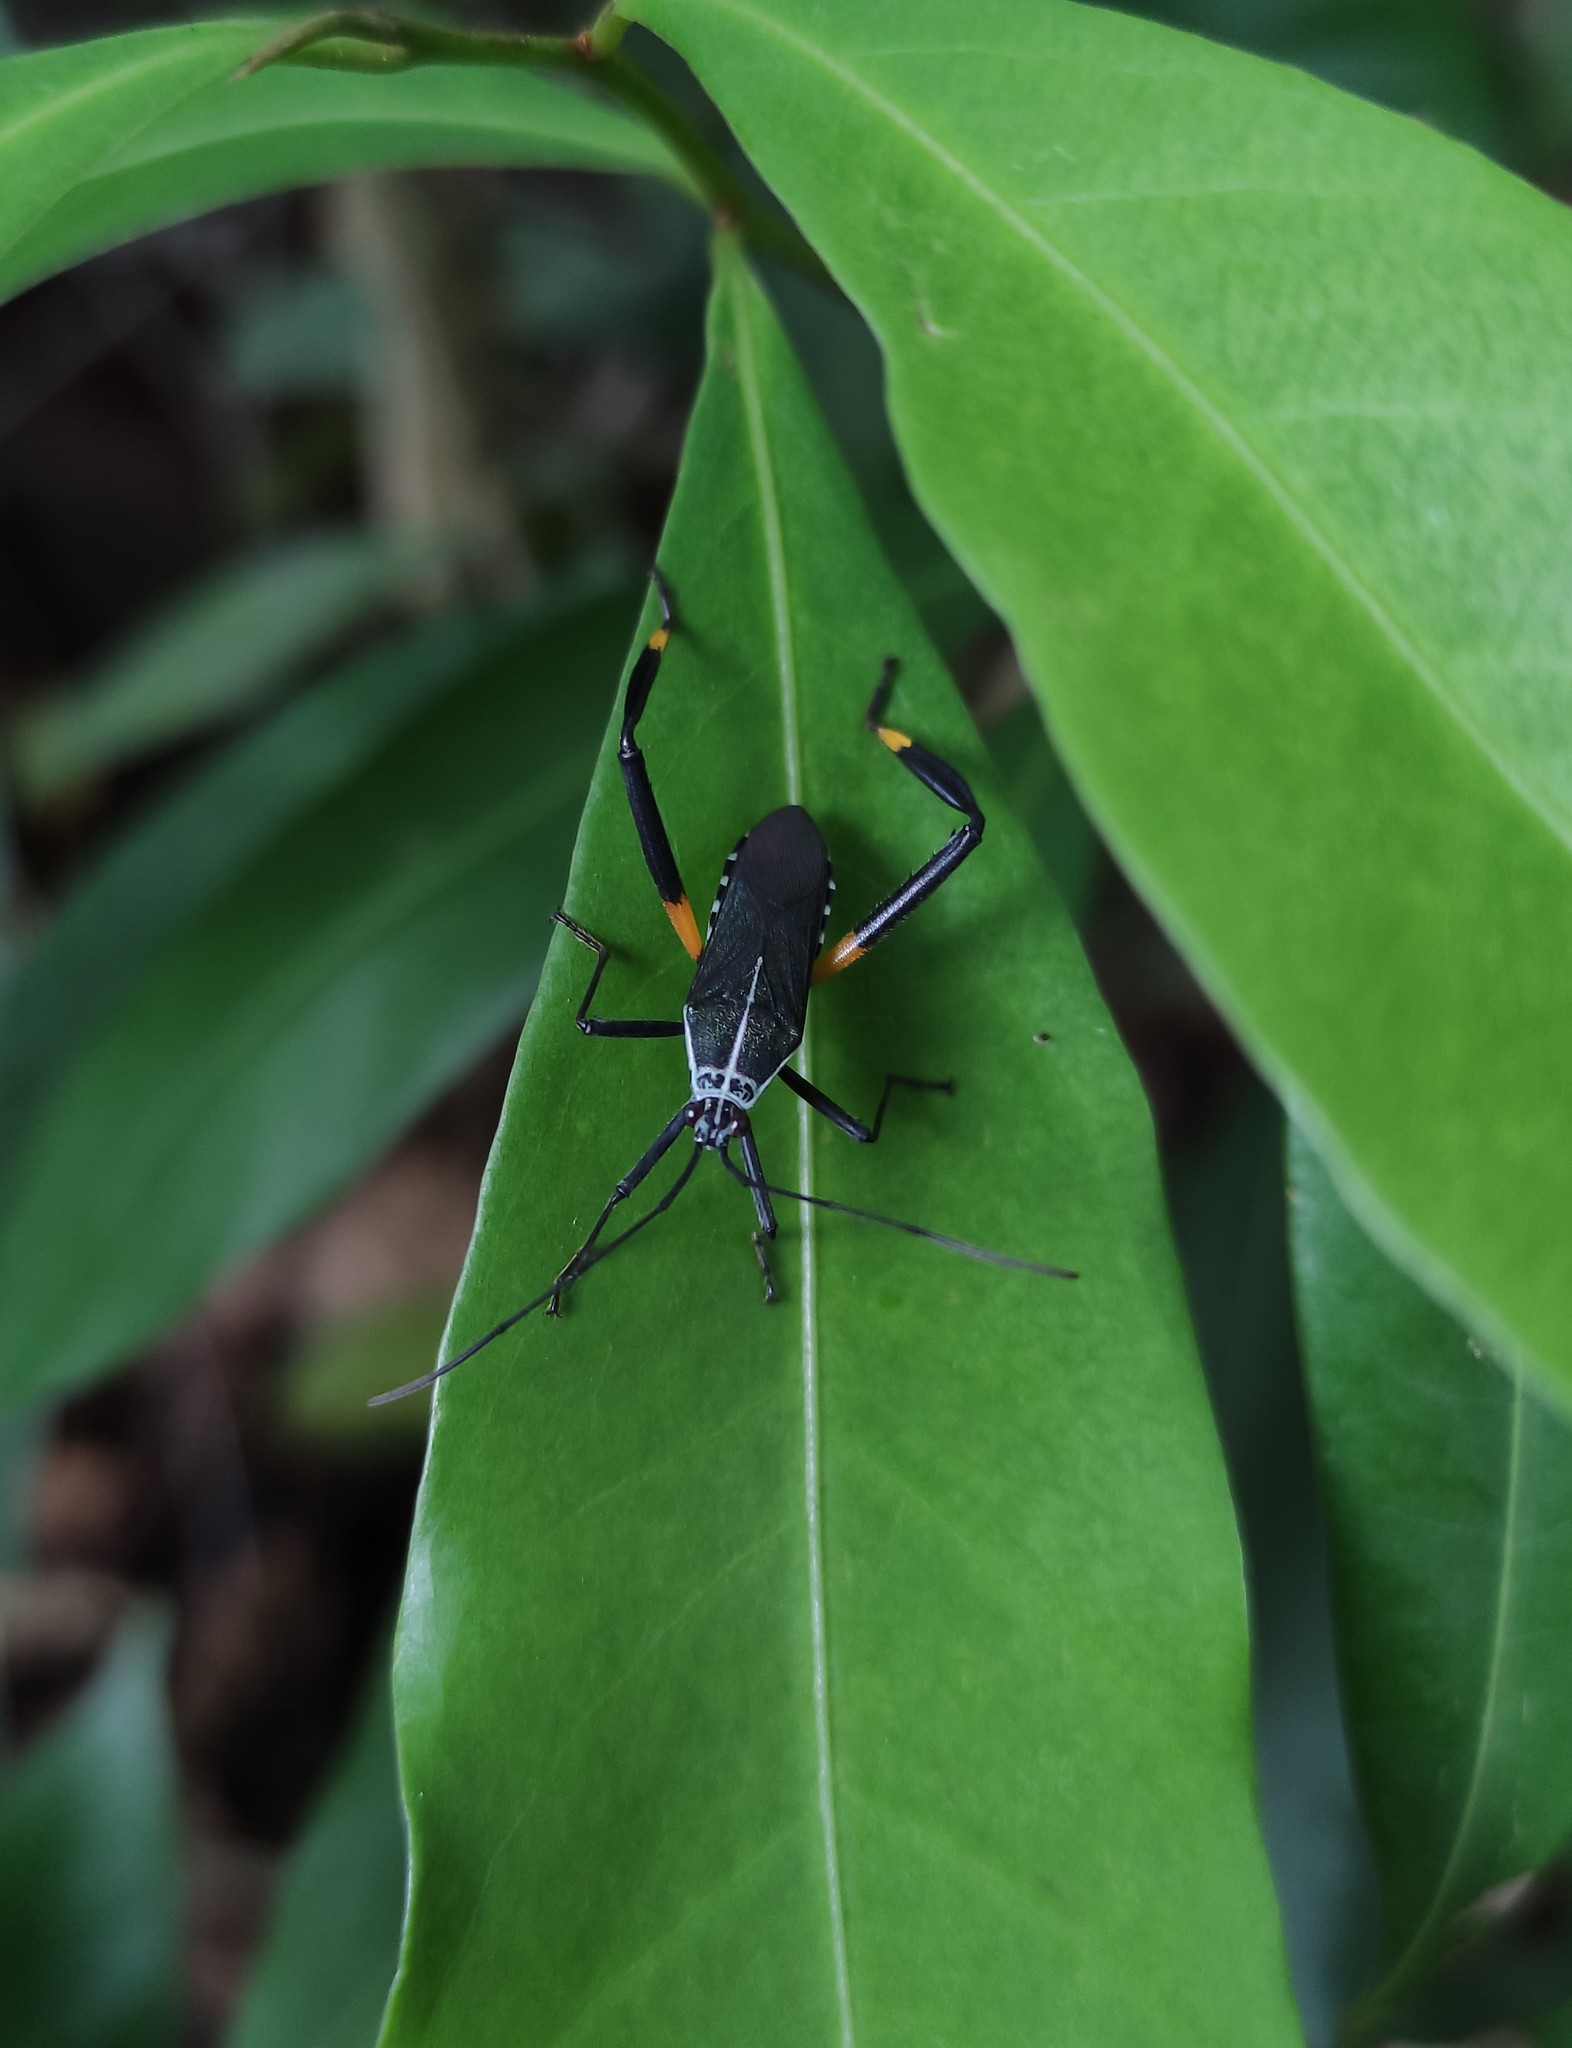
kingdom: Animalia
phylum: Arthropoda
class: Insecta
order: Hemiptera
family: Coreidae
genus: Plaxiscelis
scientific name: Plaxiscelis semilineata
